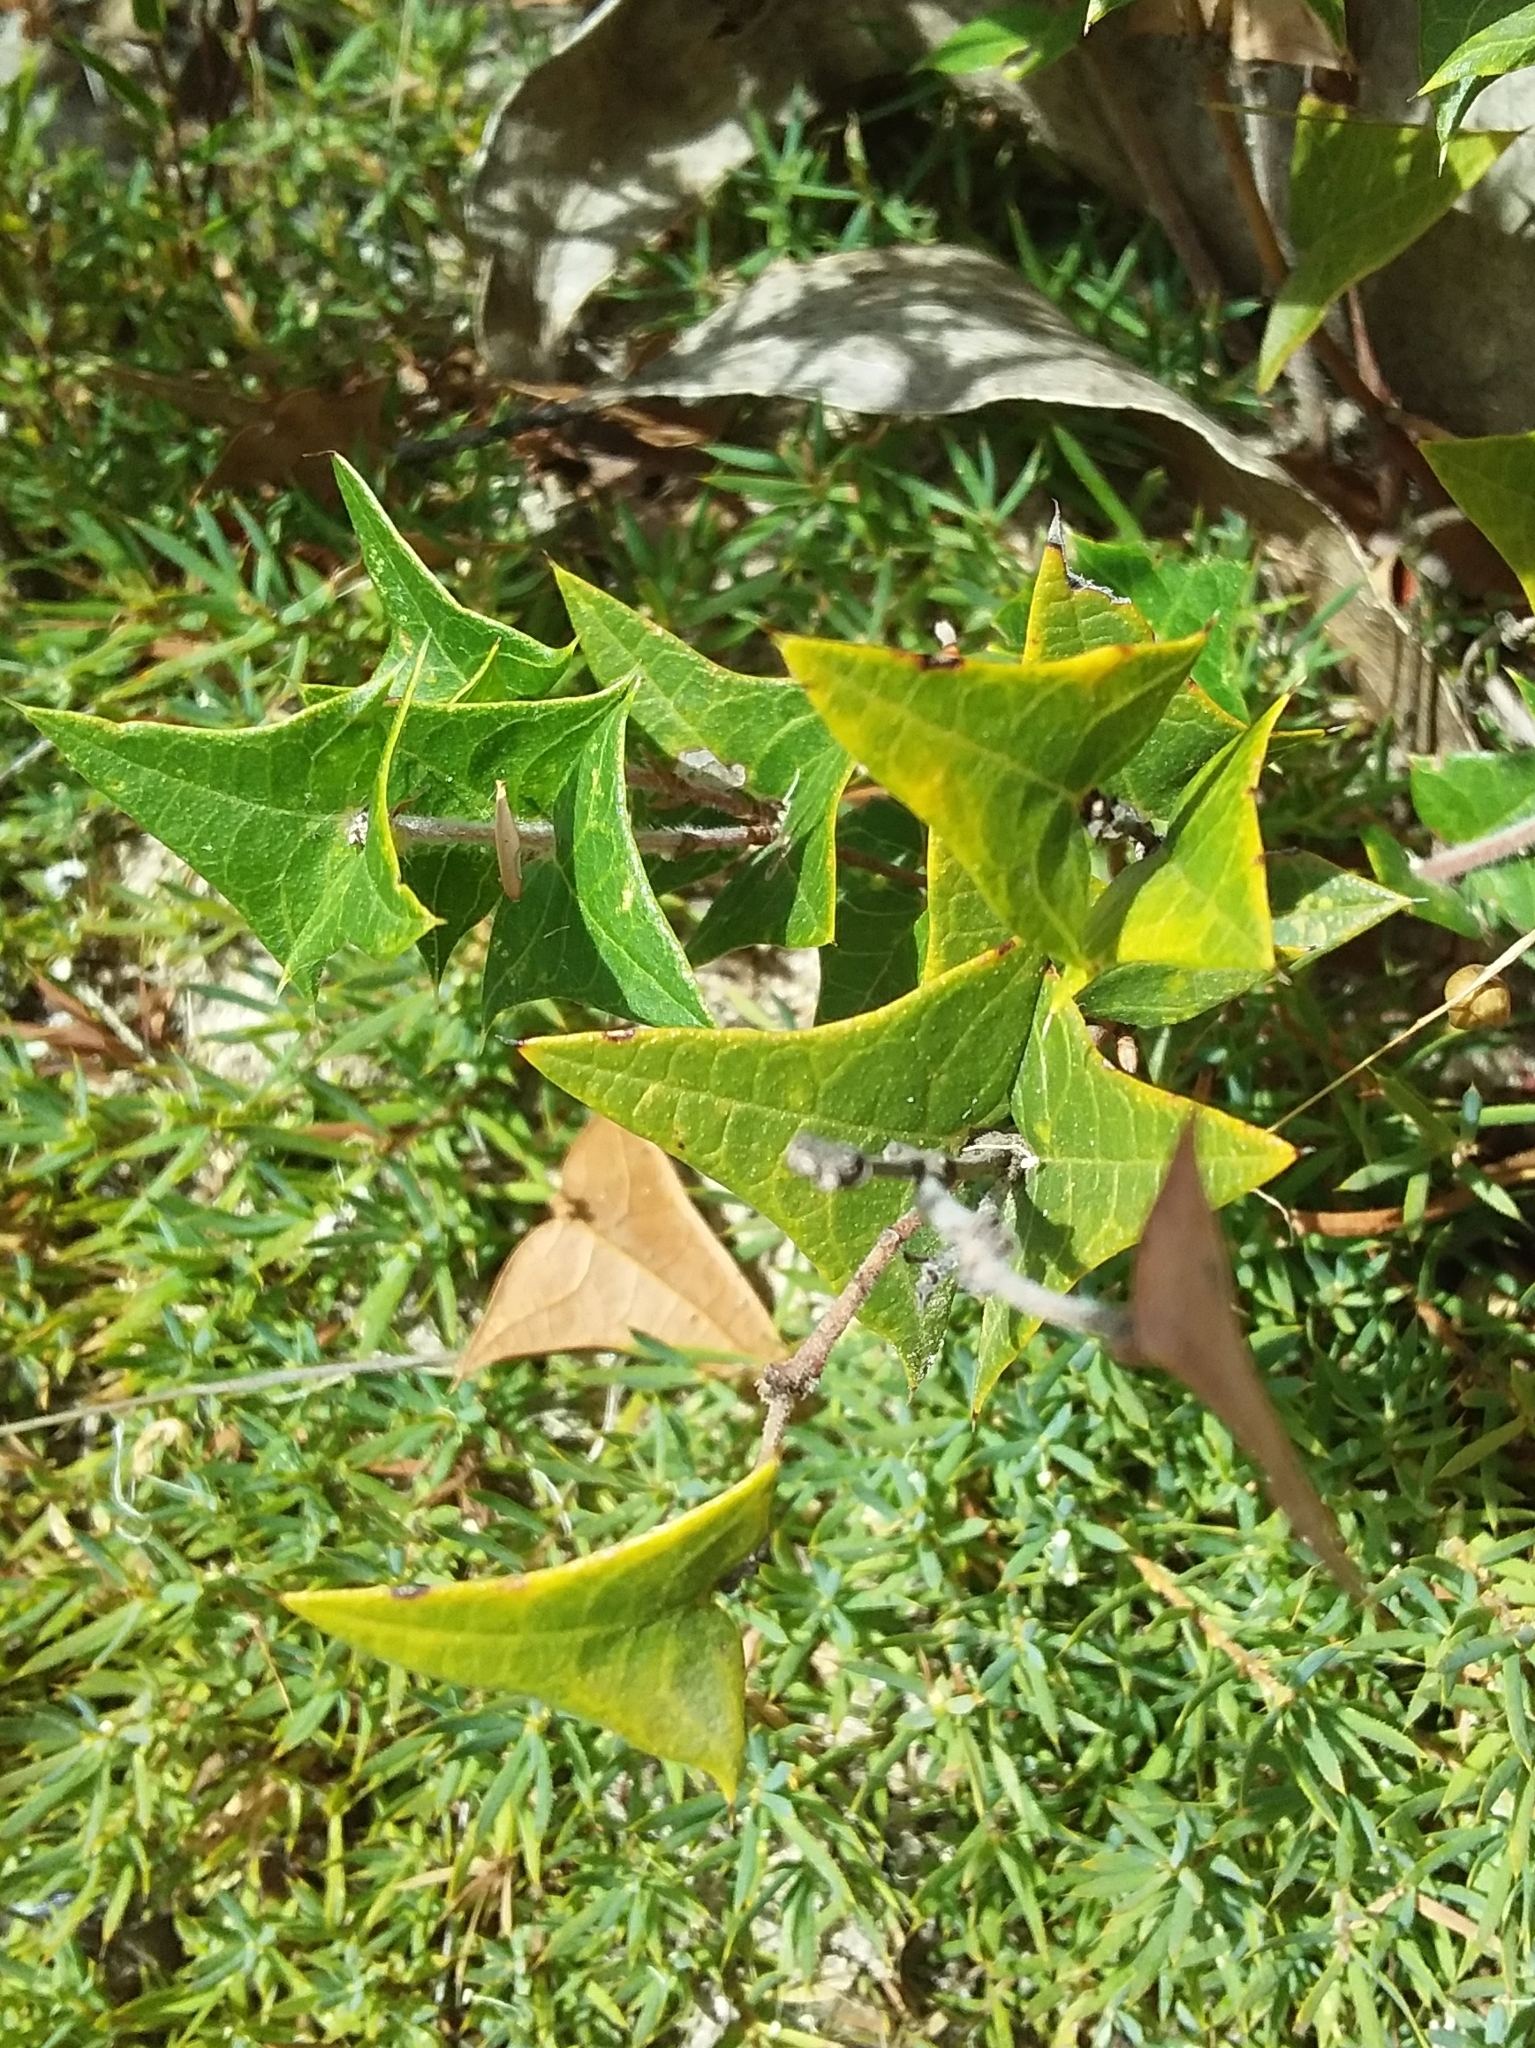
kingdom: Plantae
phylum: Tracheophyta
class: Magnoliopsida
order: Fabales
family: Fabaceae
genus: Platylobium
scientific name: Platylobium obtusangulum
